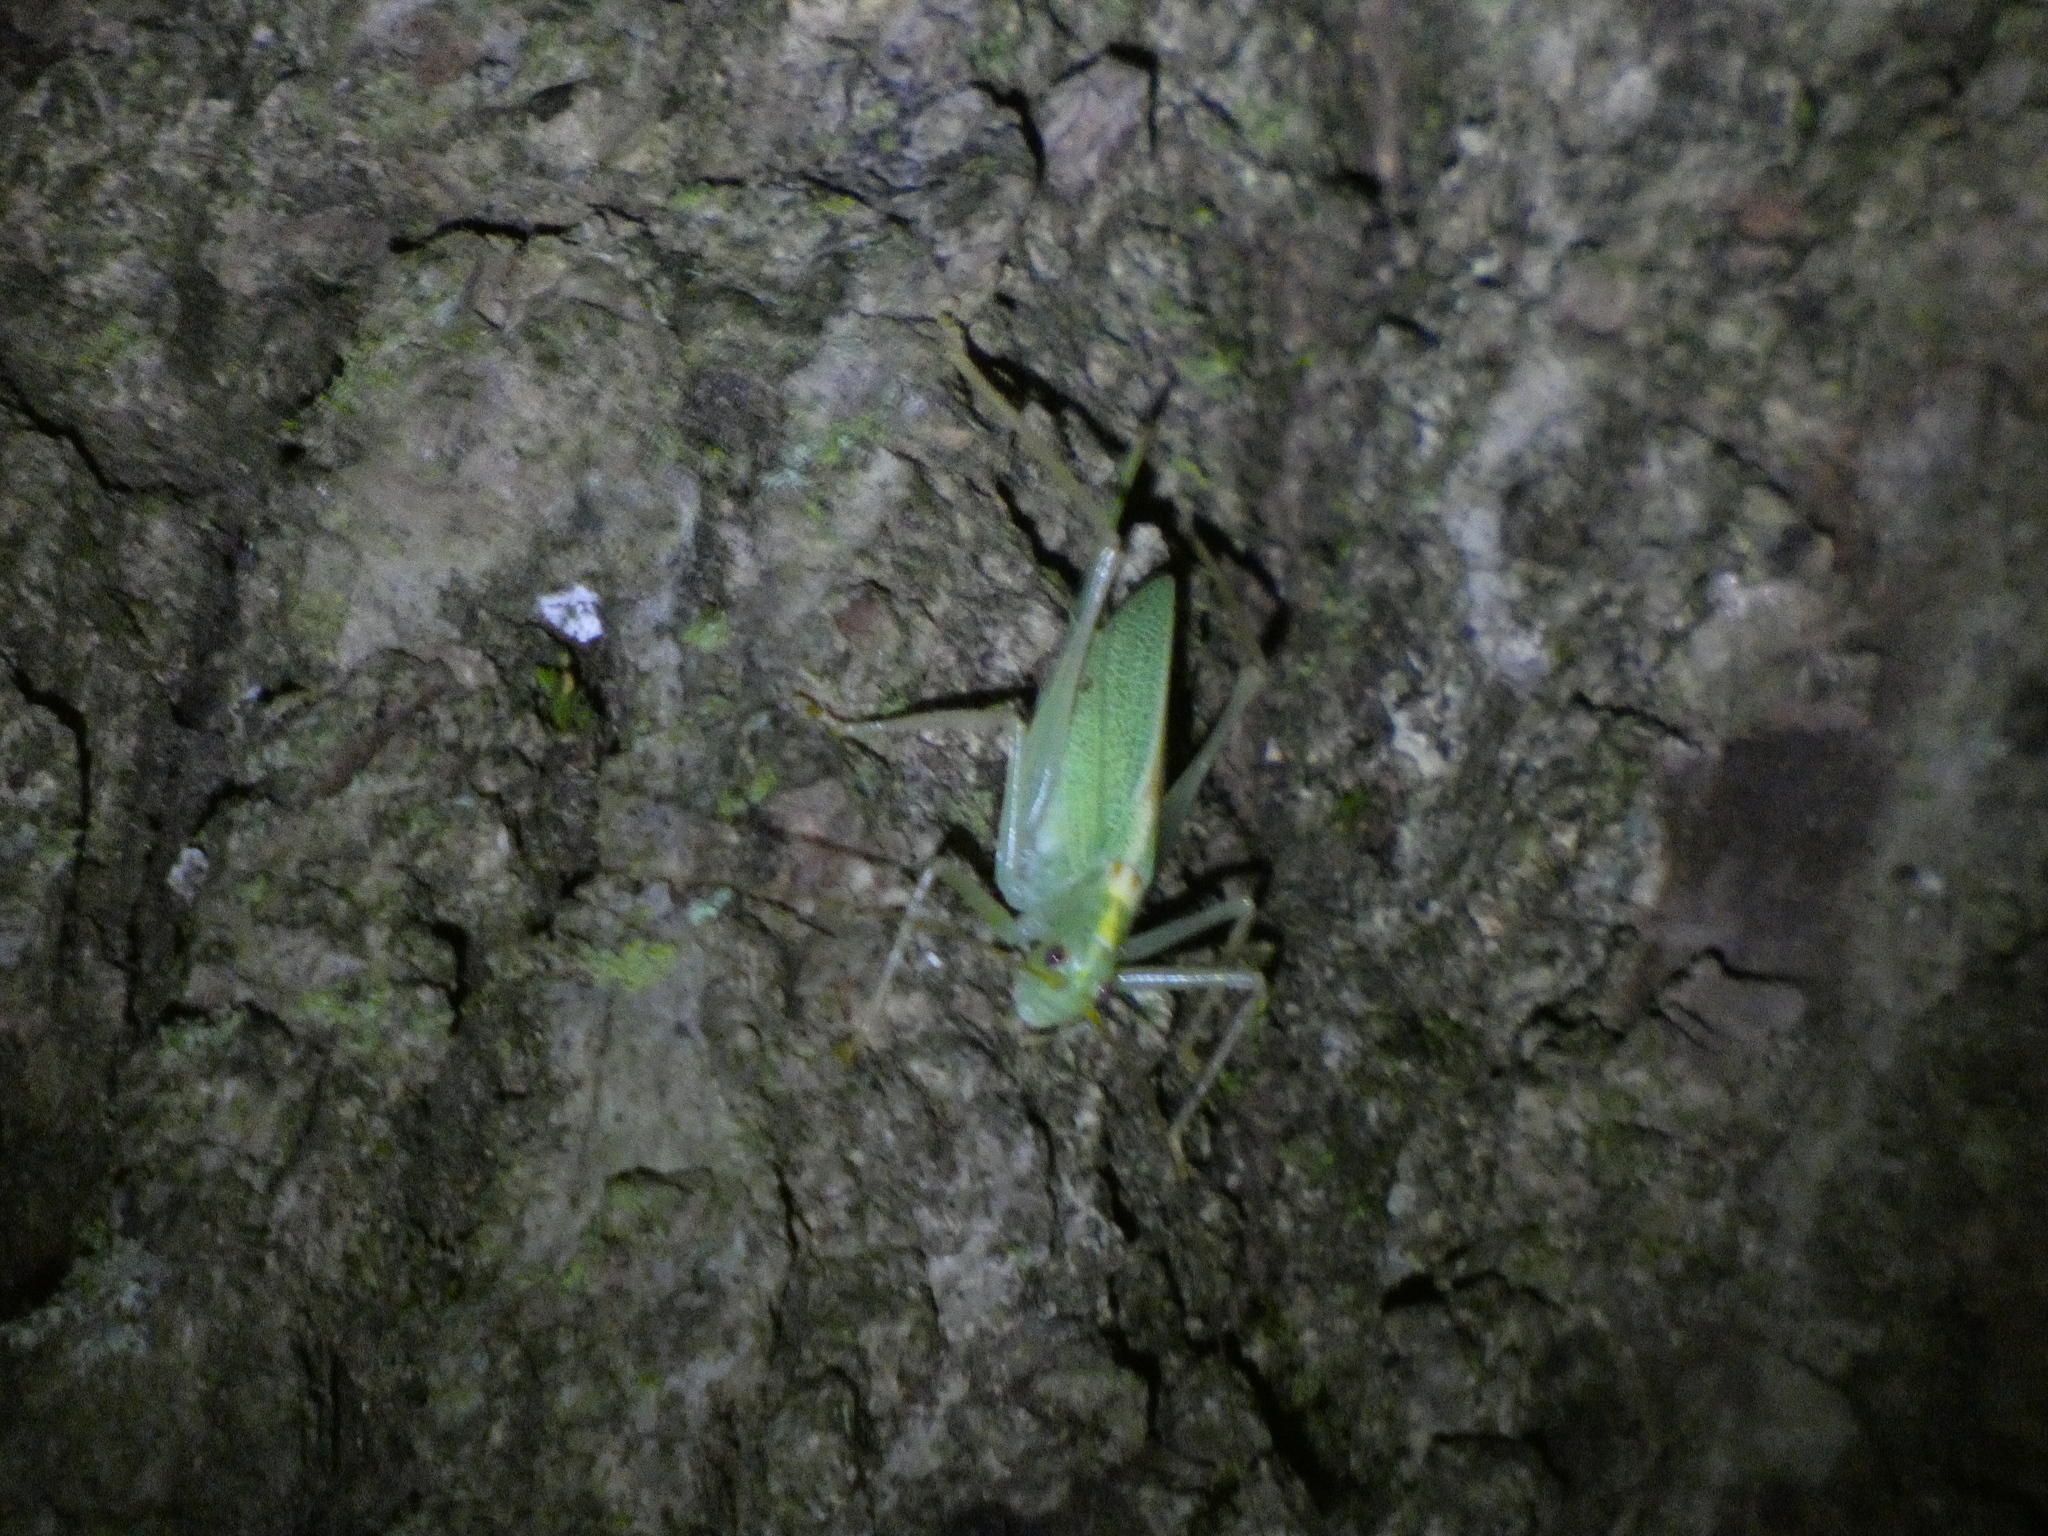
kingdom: Animalia
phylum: Arthropoda
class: Insecta
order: Orthoptera
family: Tettigoniidae
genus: Meconema
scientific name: Meconema thalassinum
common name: Oak bush-cricket
